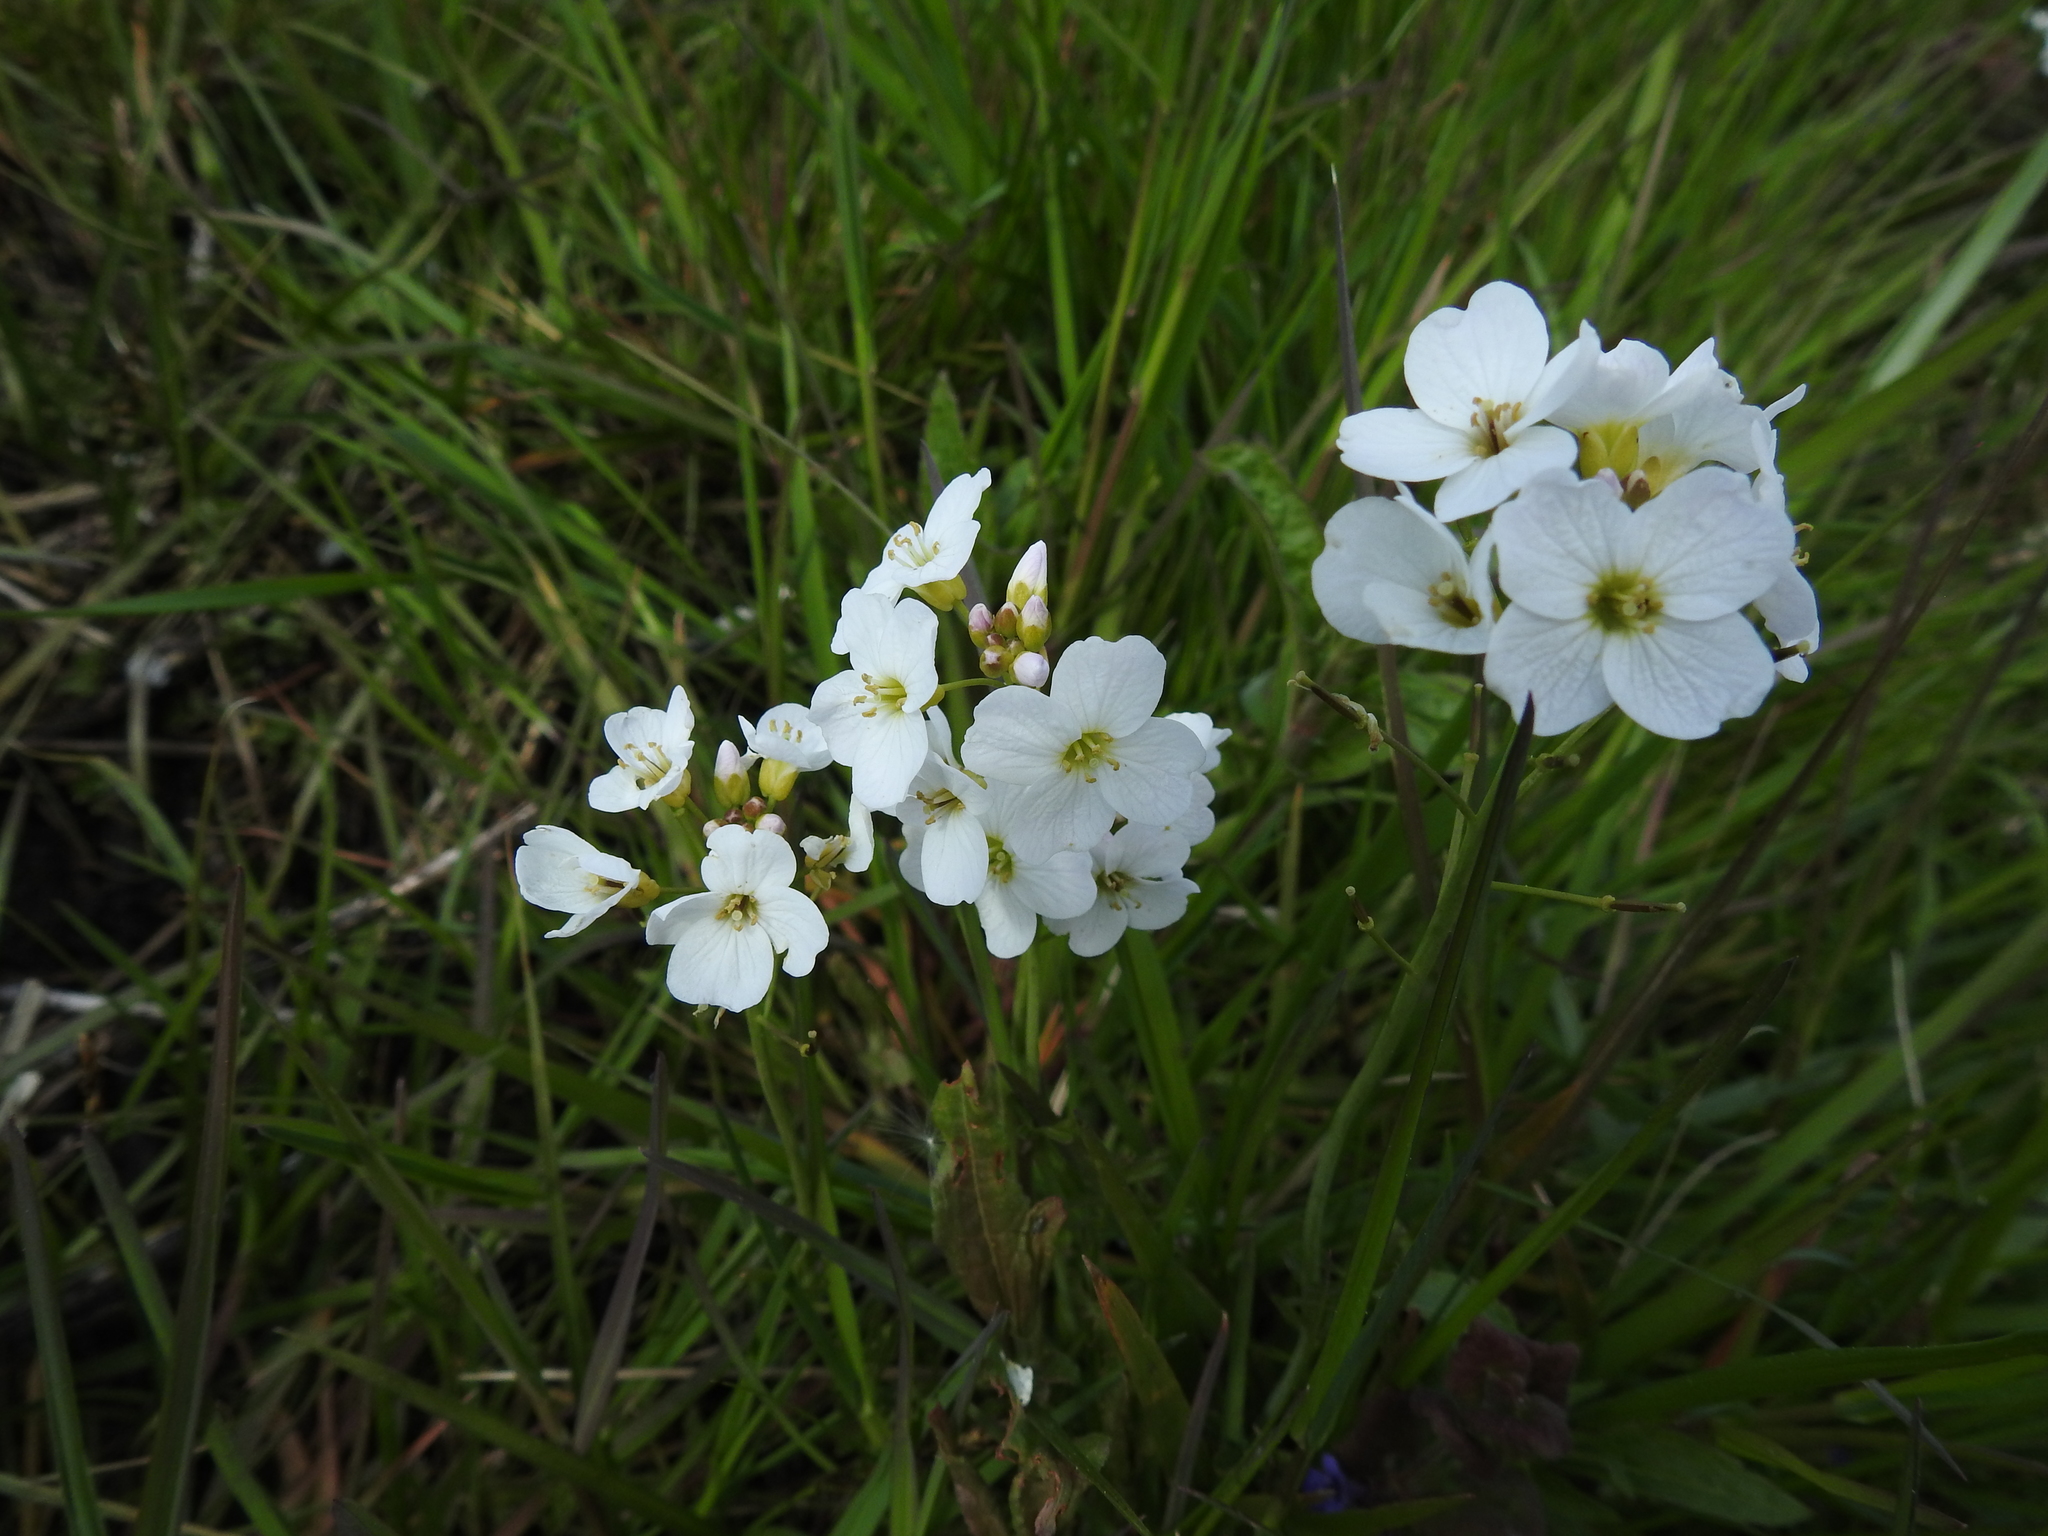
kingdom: Plantae
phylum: Tracheophyta
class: Magnoliopsida
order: Brassicales
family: Brassicaceae
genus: Cardamine
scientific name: Cardamine pratensis
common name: Cuckoo flower
